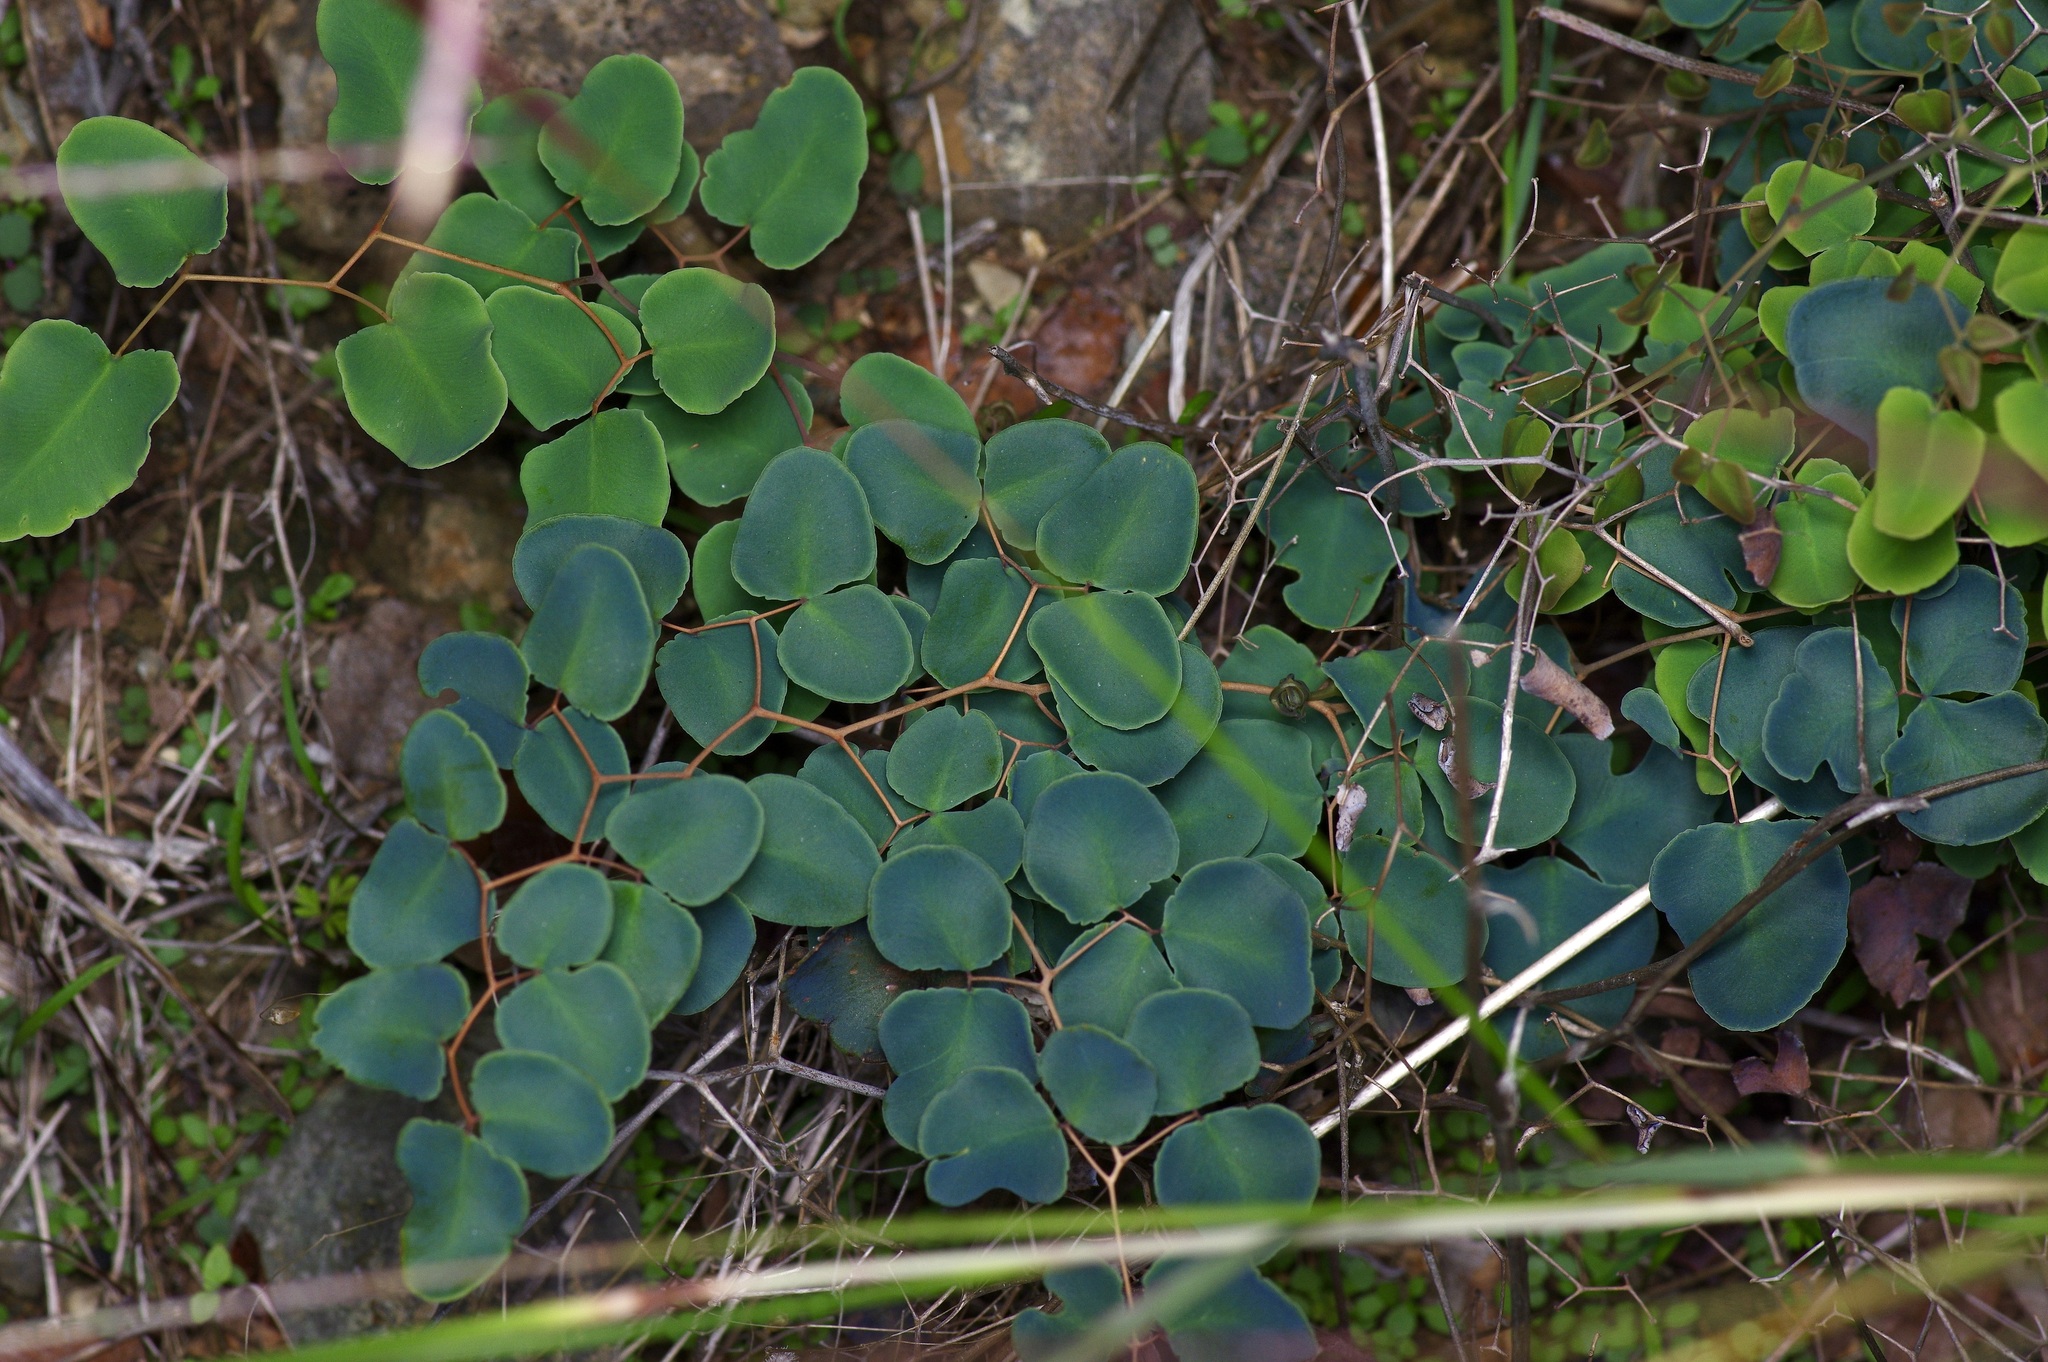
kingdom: Plantae
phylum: Tracheophyta
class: Polypodiopsida
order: Polypodiales
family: Pteridaceae
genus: Pellaea
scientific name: Pellaea ovata
